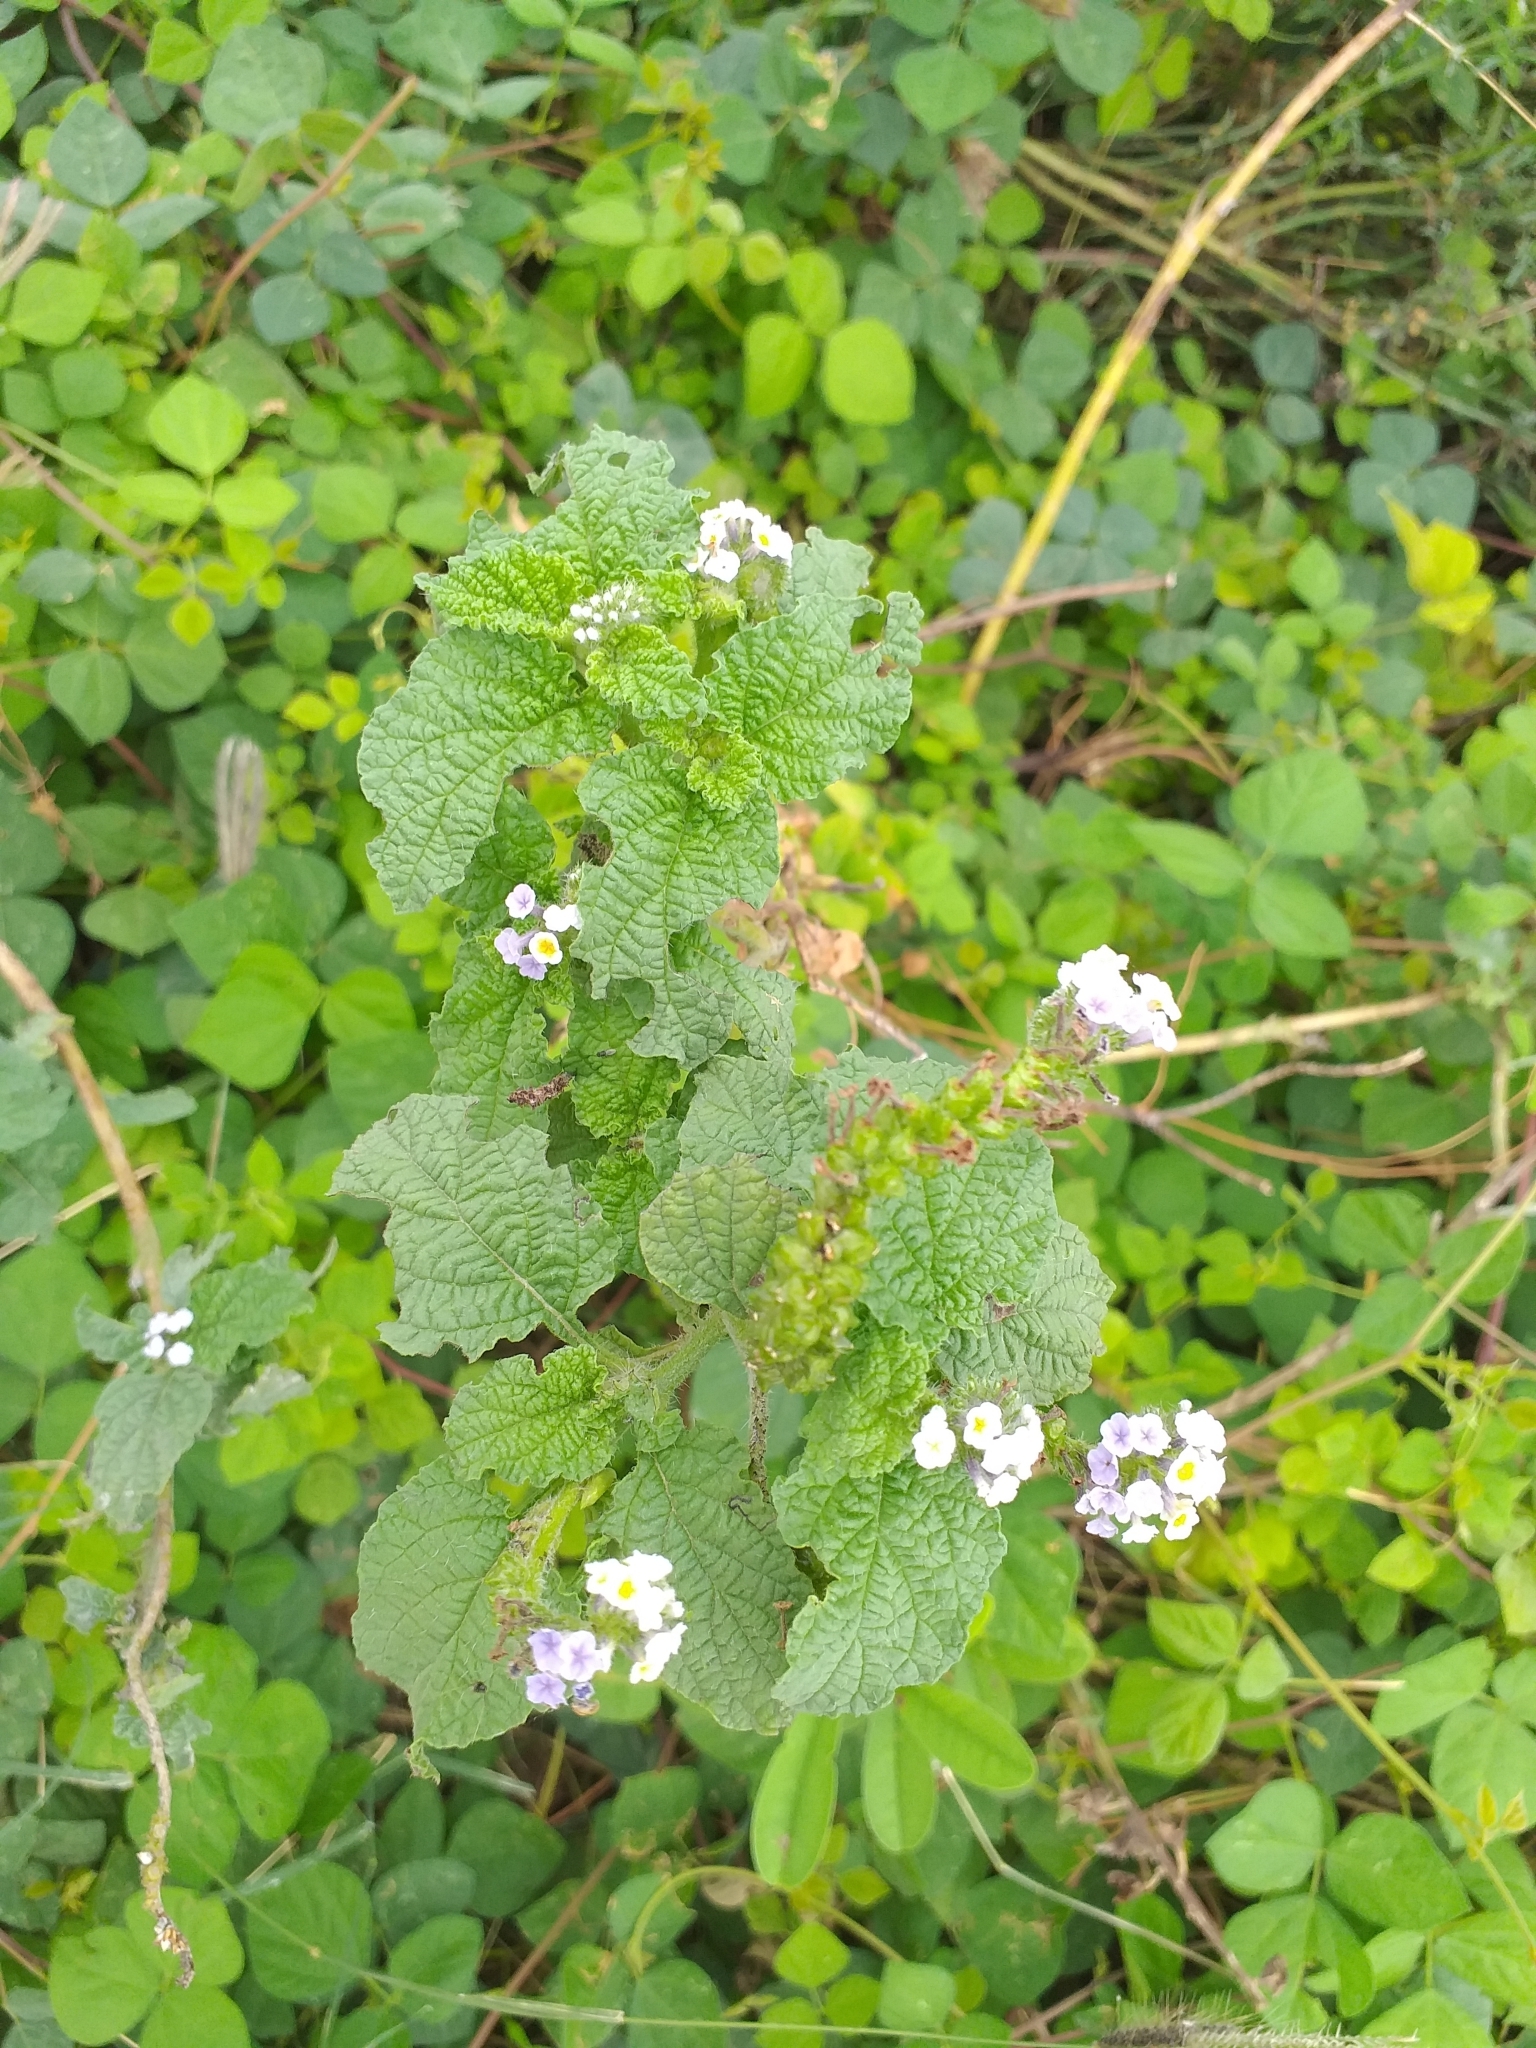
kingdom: Plantae
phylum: Tracheophyta
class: Magnoliopsida
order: Boraginales
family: Heliotropiaceae
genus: Heliotropium
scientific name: Heliotropium elongatum
